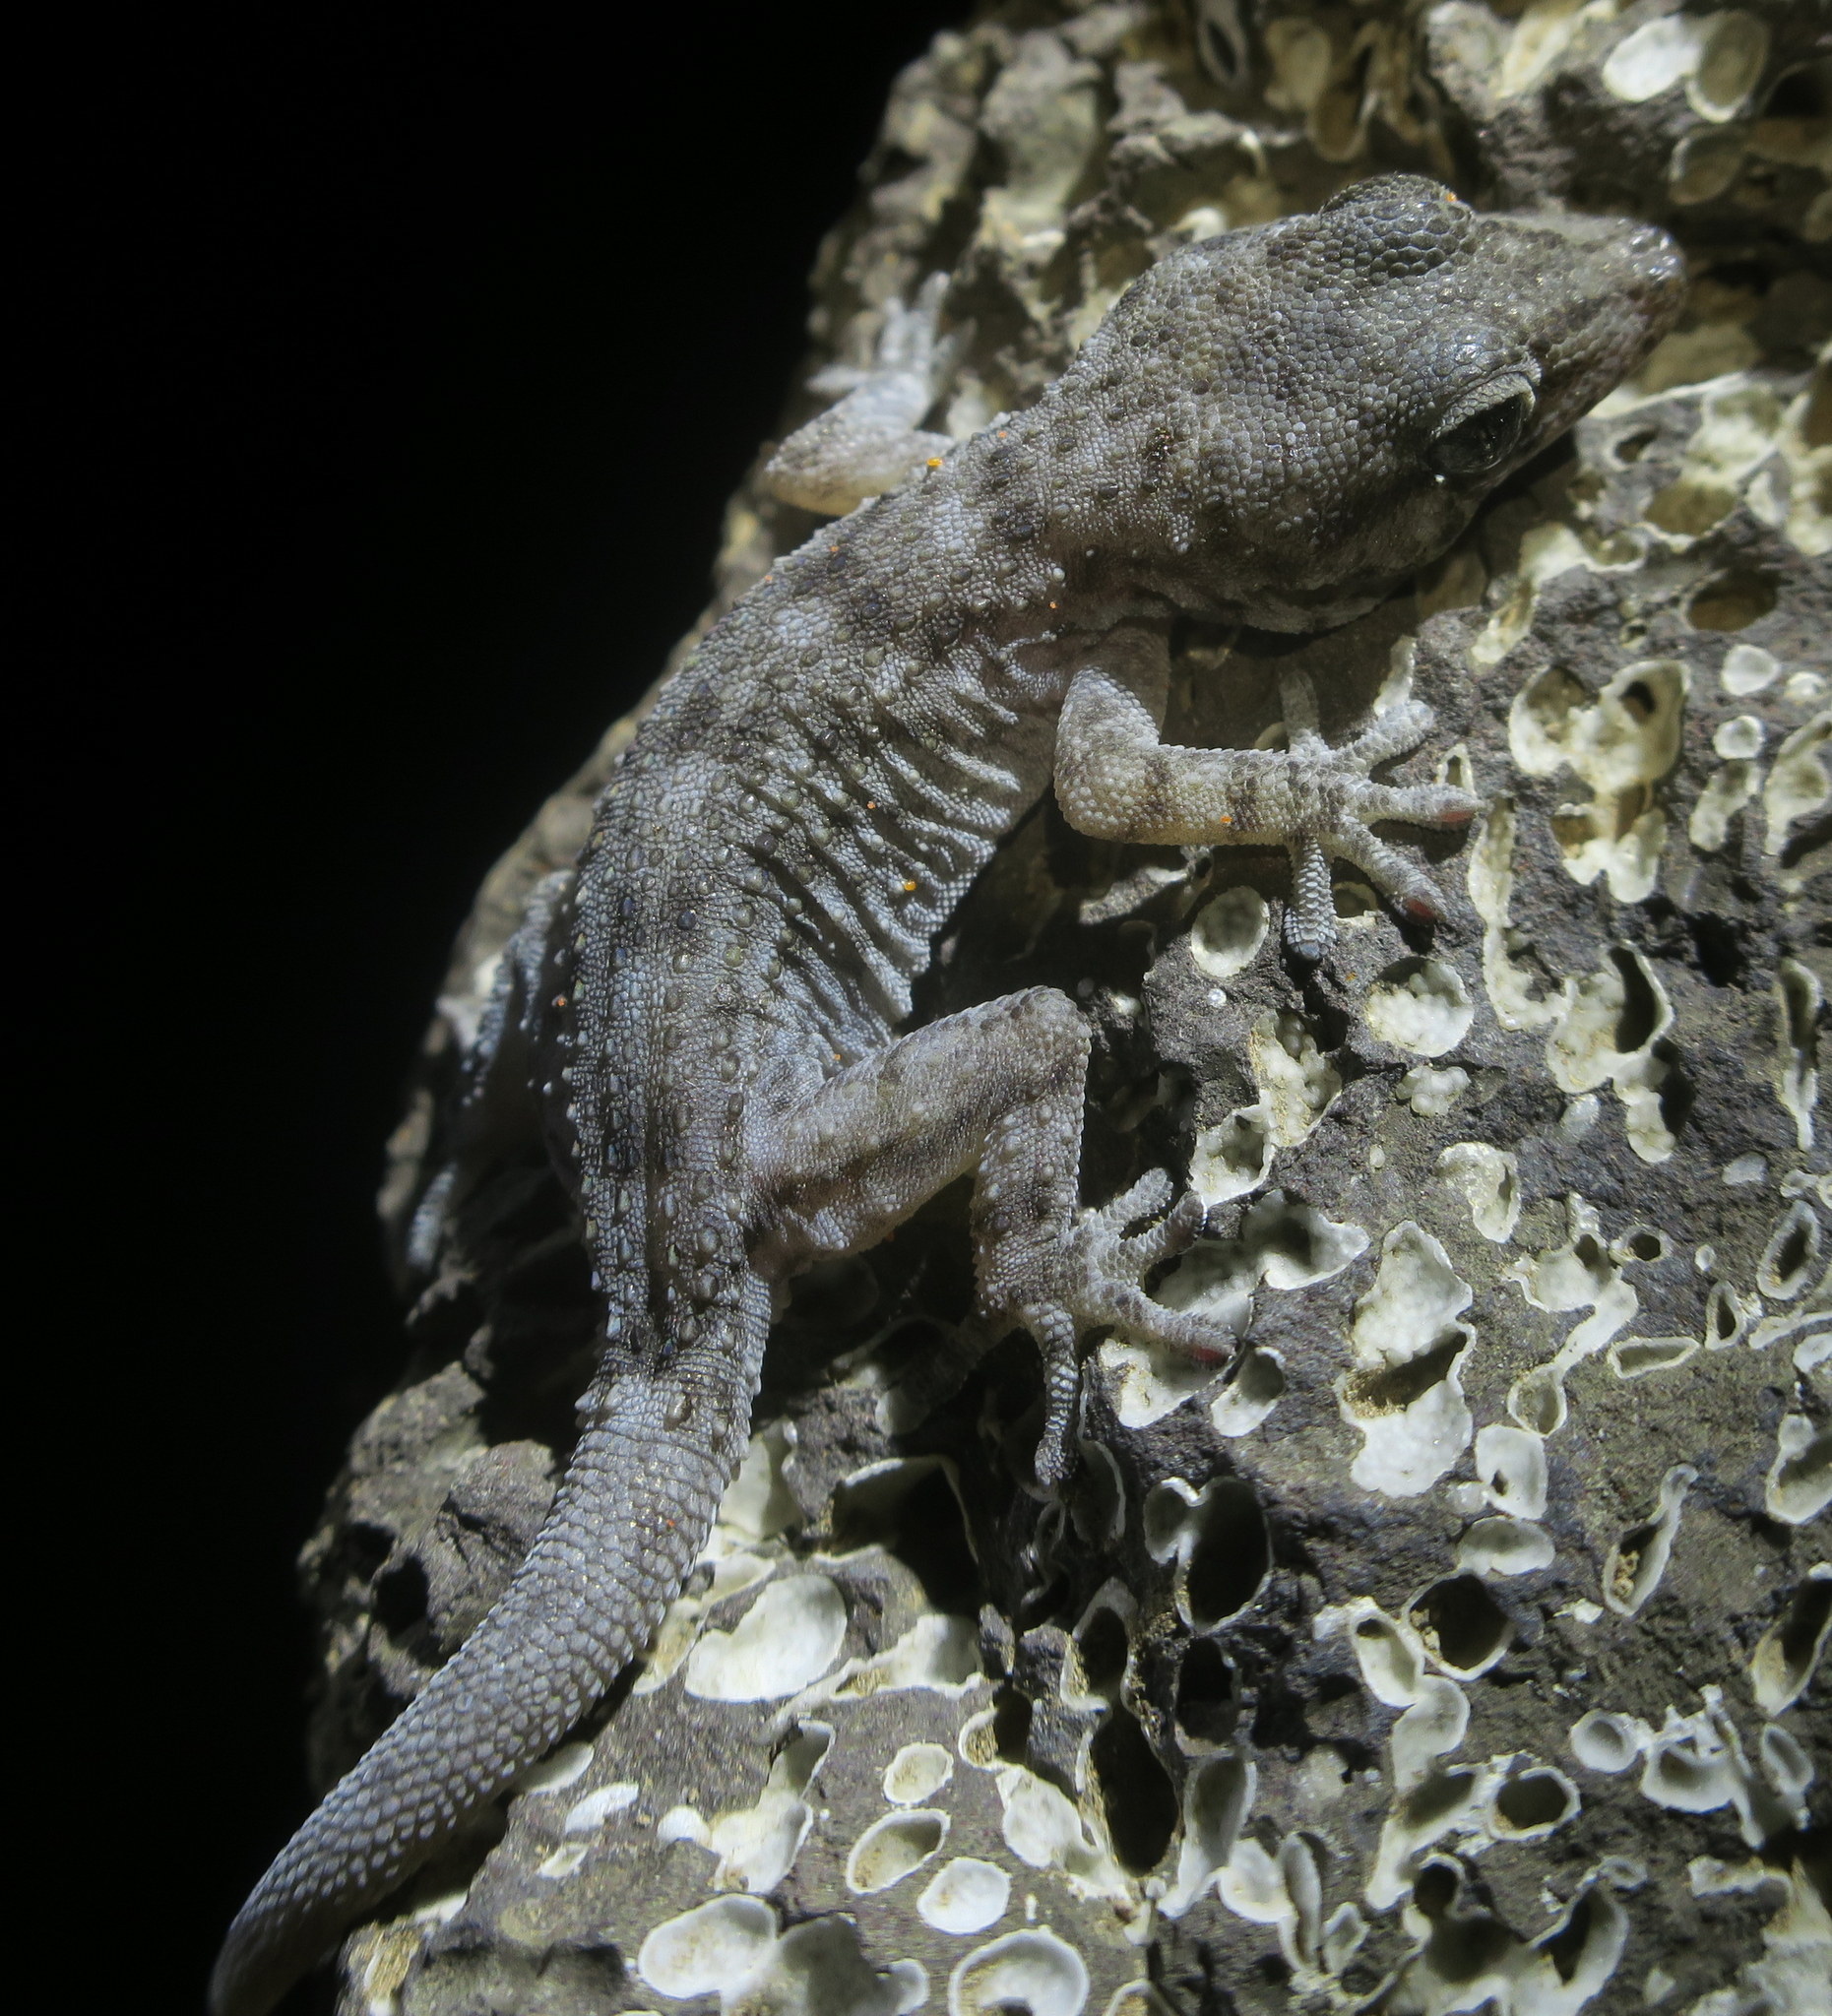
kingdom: Animalia
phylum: Chordata
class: Squamata
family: Phyllodactylidae
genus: Tarentola
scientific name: Tarentola delalandii
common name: Tenerife wall gecko
